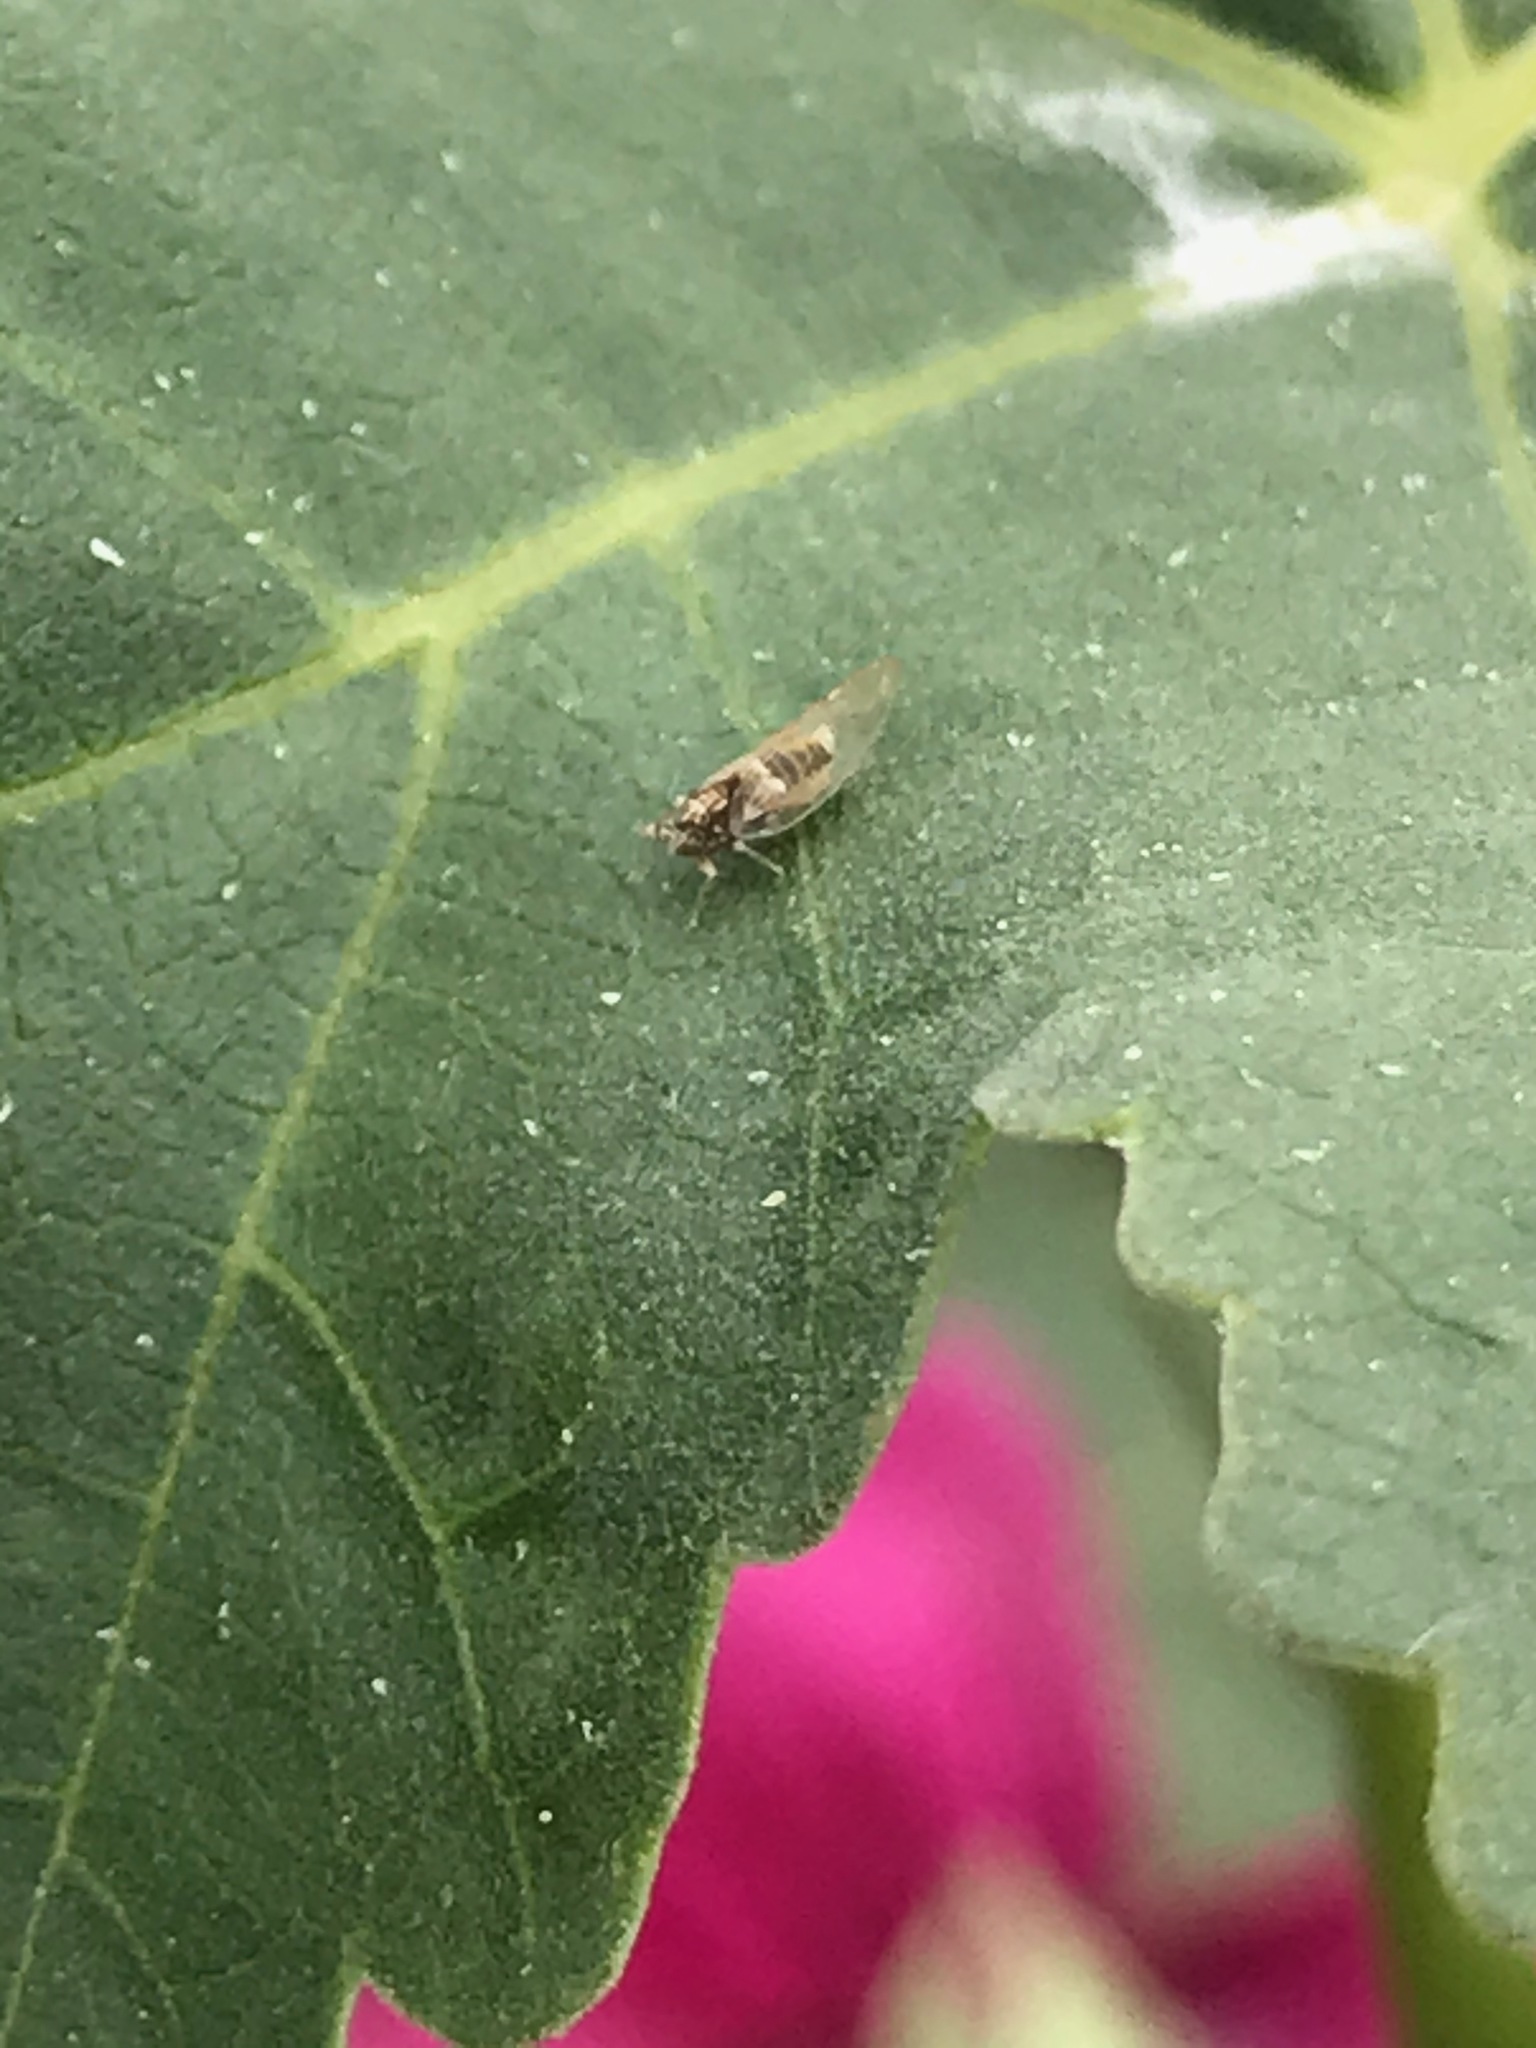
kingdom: Animalia
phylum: Arthropoda
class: Insecta
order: Hemiptera
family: Triozidae
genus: Bactericera
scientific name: Bactericera lavaterae
